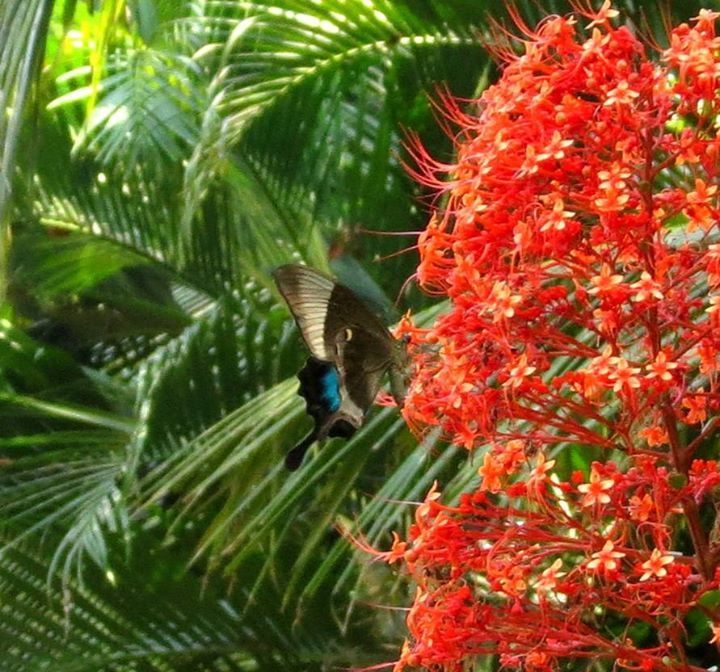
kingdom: Animalia
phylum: Arthropoda
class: Insecta
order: Lepidoptera
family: Papilionidae
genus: Papilio
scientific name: Papilio buddha
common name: Malabar banded peacock
